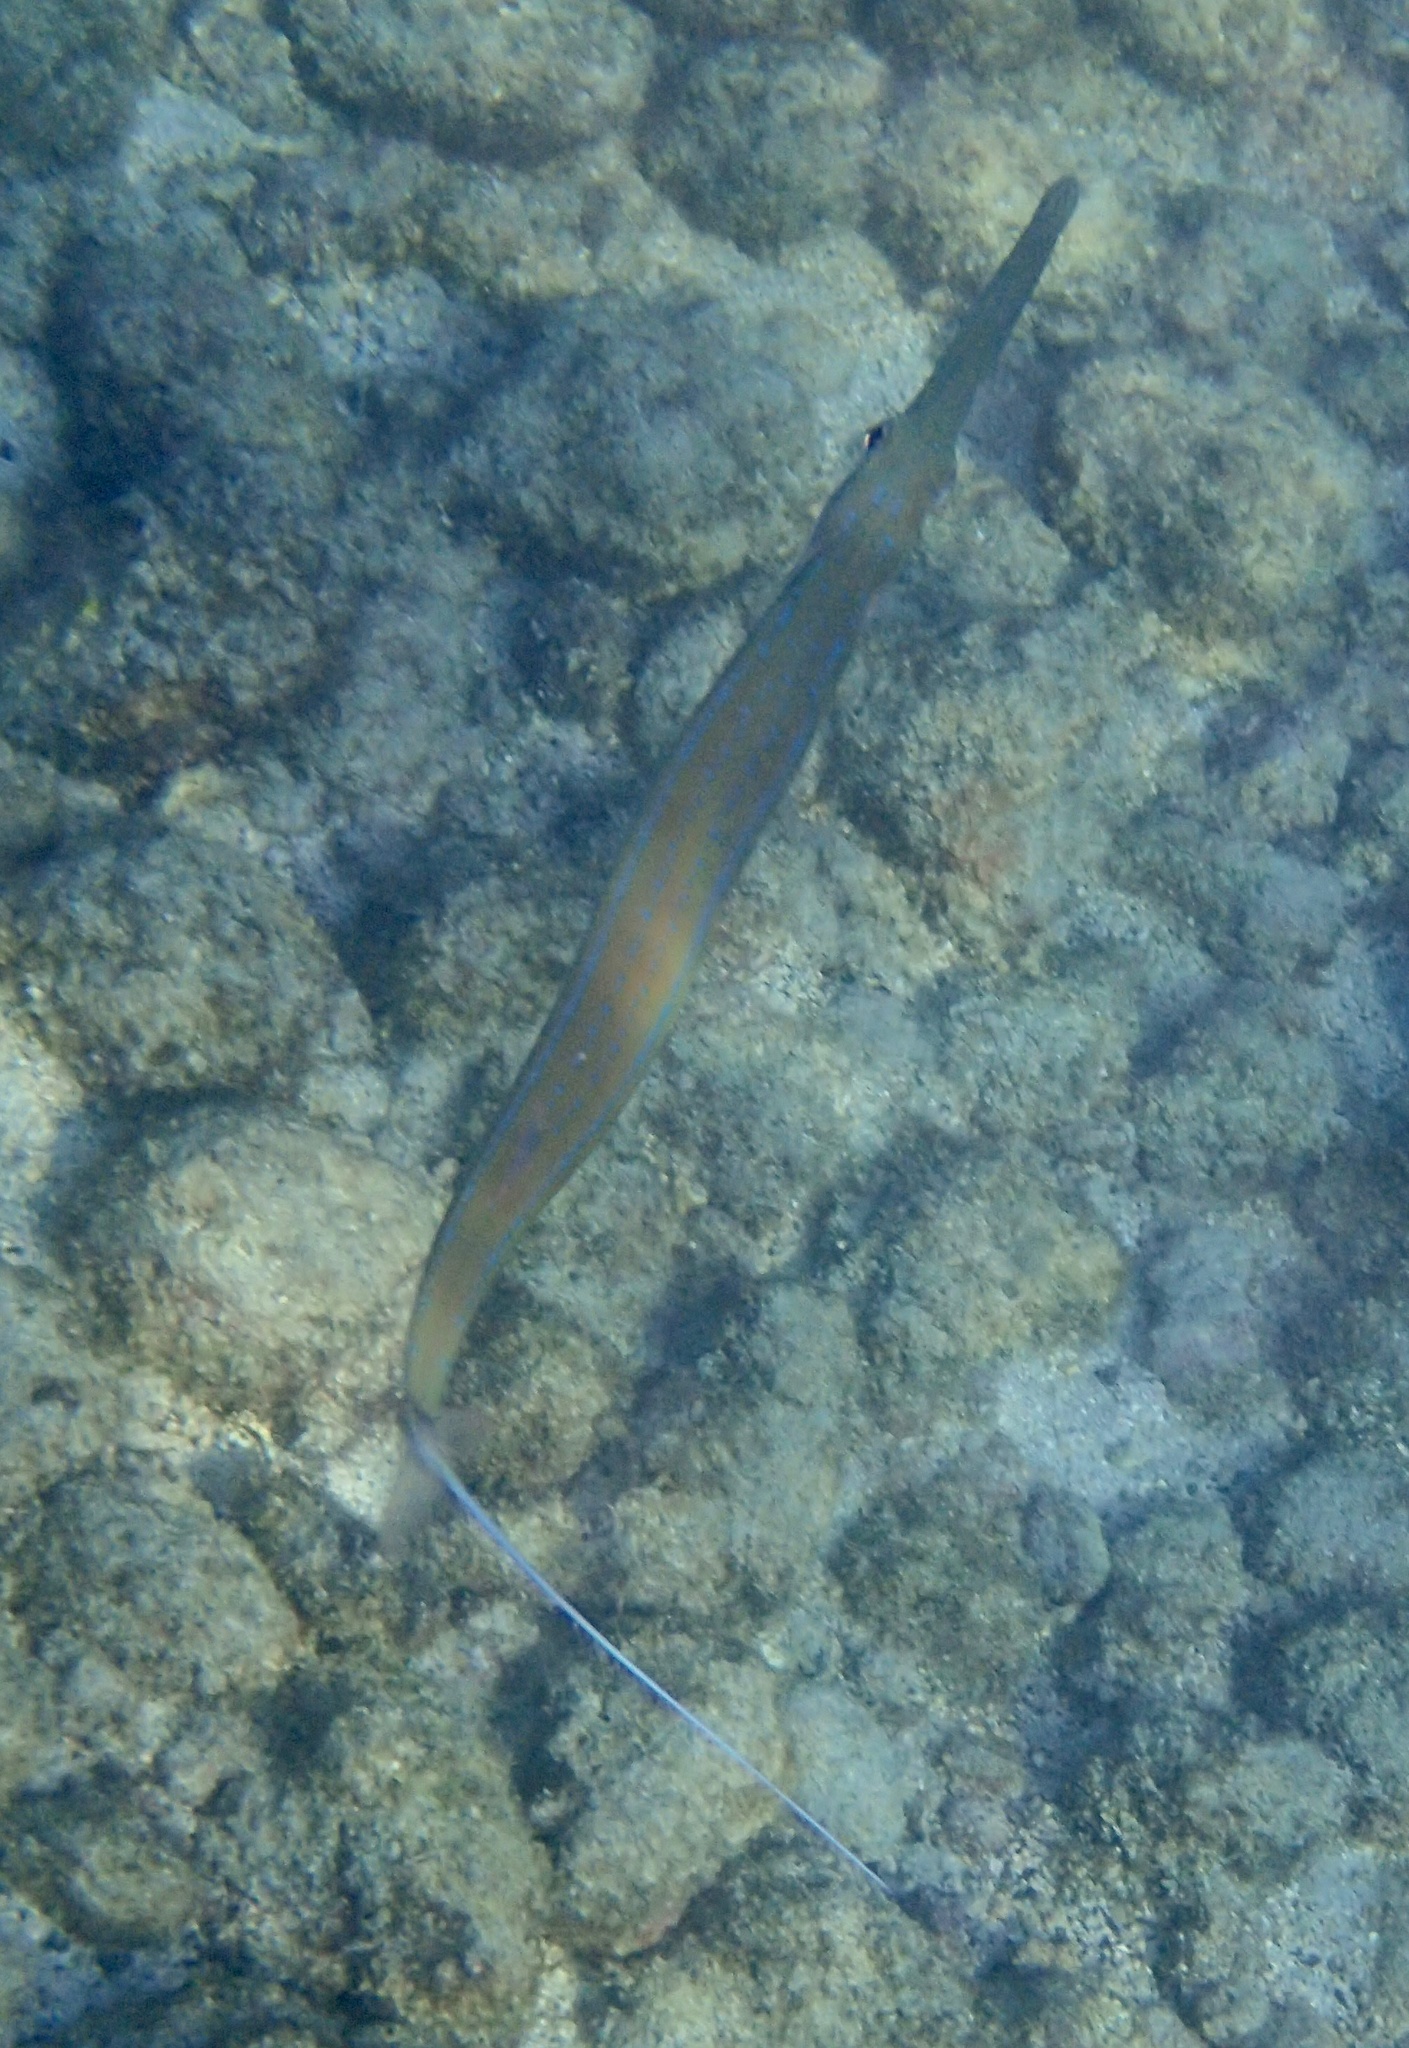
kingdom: Animalia
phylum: Chordata
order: Syngnathiformes
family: Fistulariidae
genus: Fistularia
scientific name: Fistularia commersonii
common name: Bluespotted cornetfish
